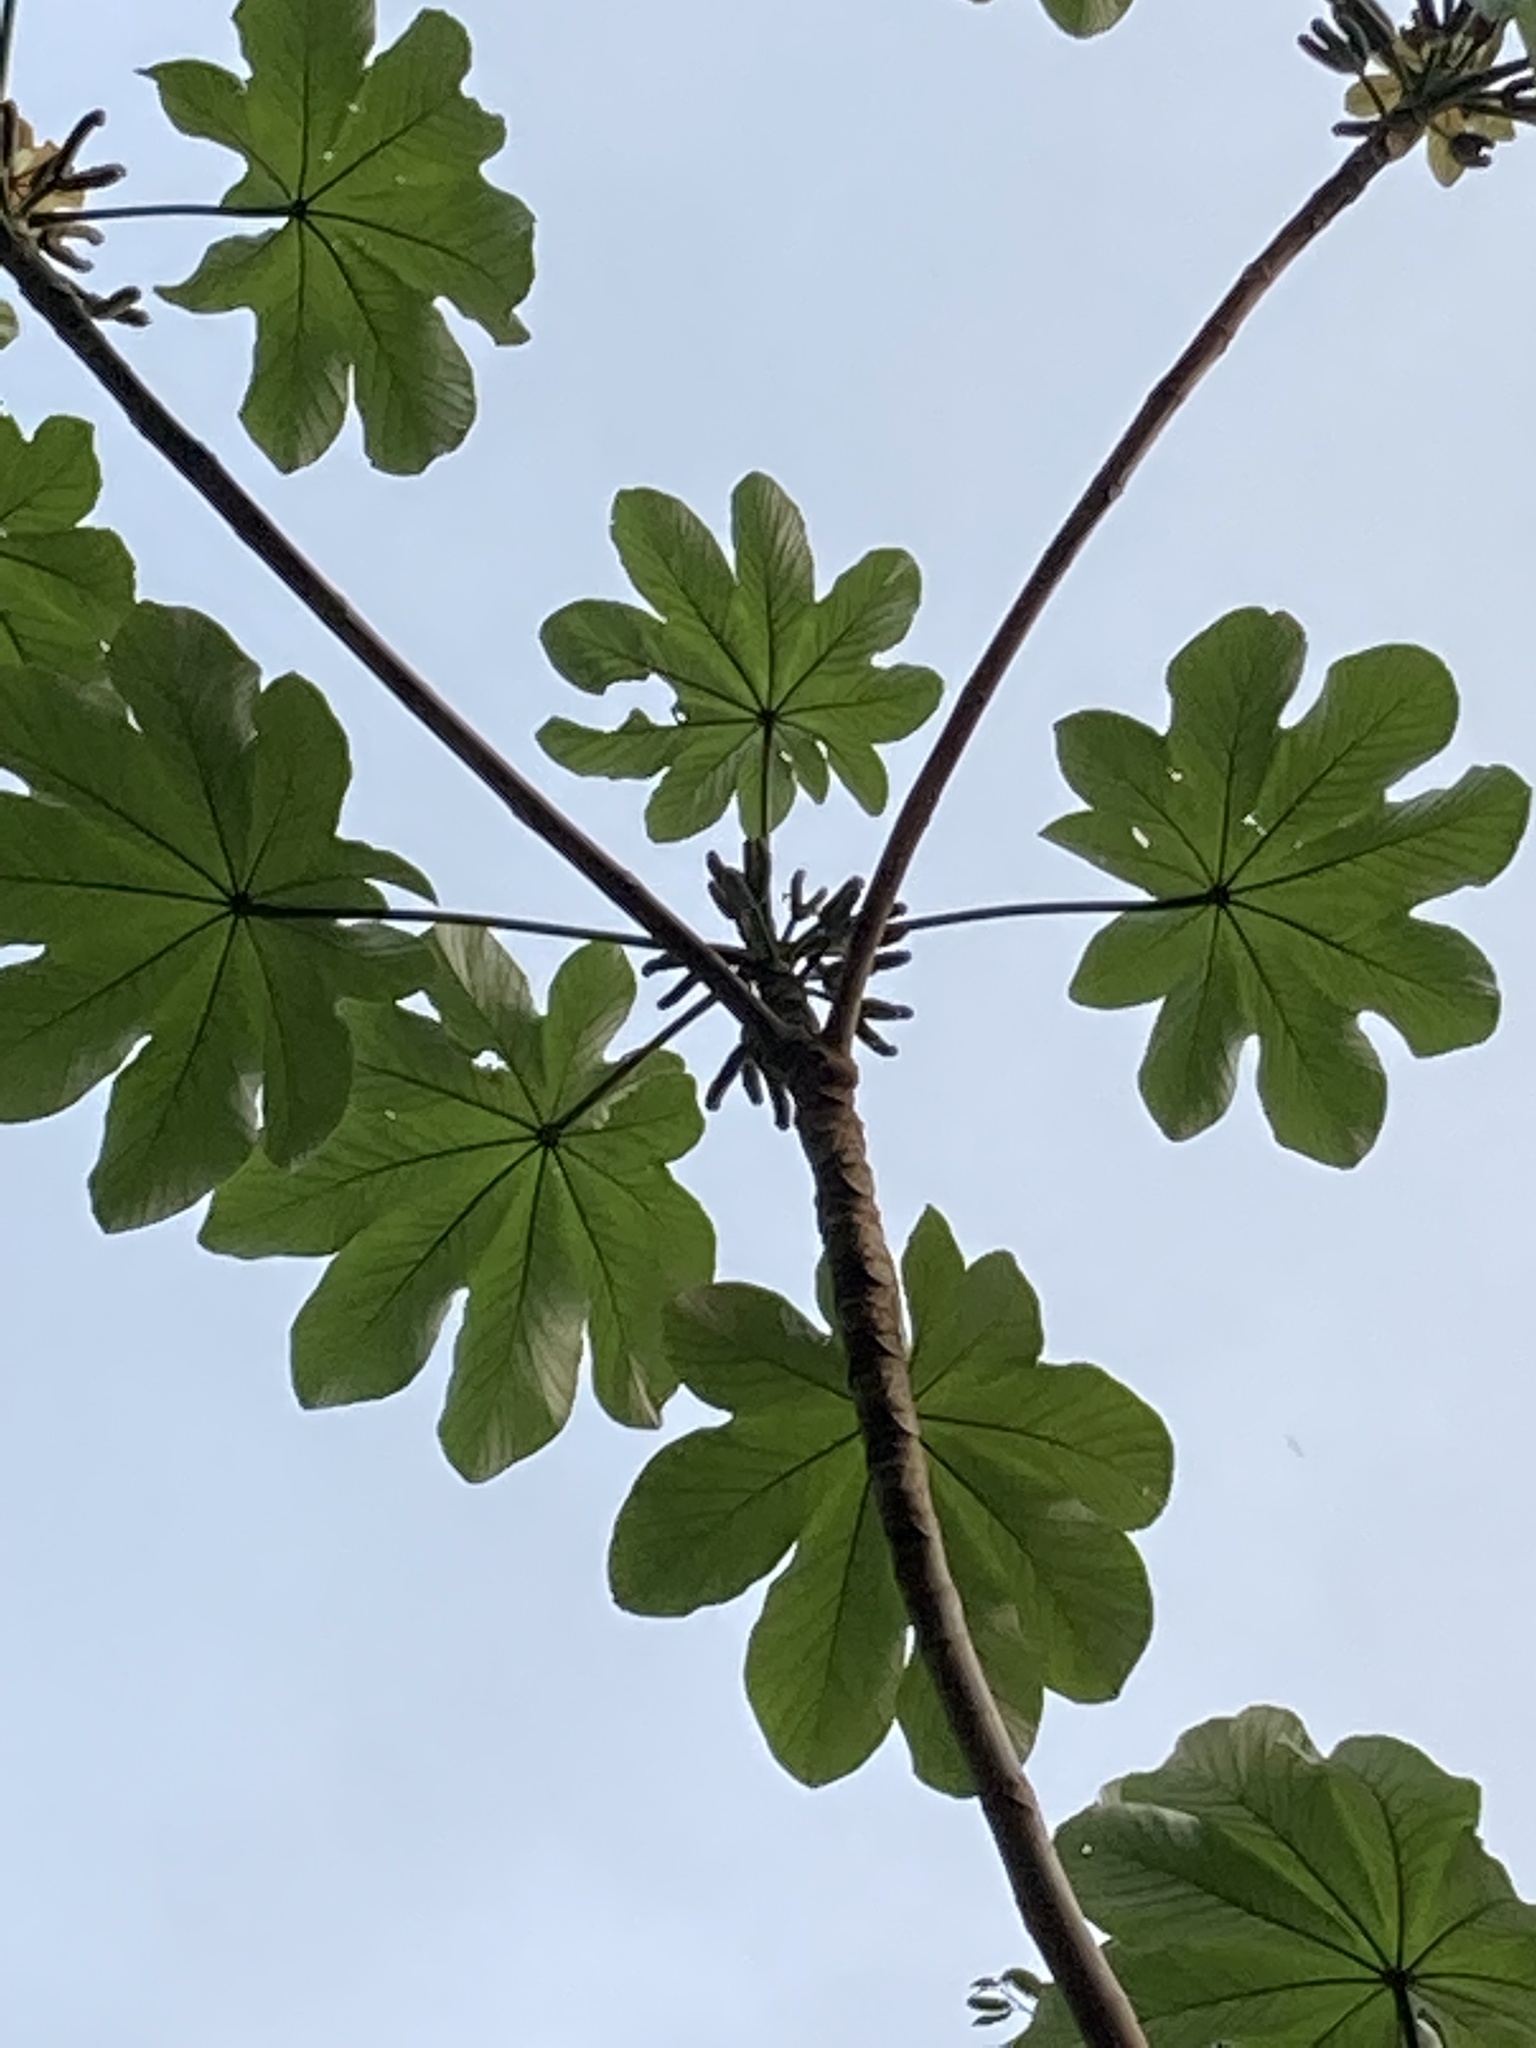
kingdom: Plantae
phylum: Tracheophyta
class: Magnoliopsida
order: Rosales
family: Urticaceae
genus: Cecropia
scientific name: Cecropia schreberiana
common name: Trumpet tree
